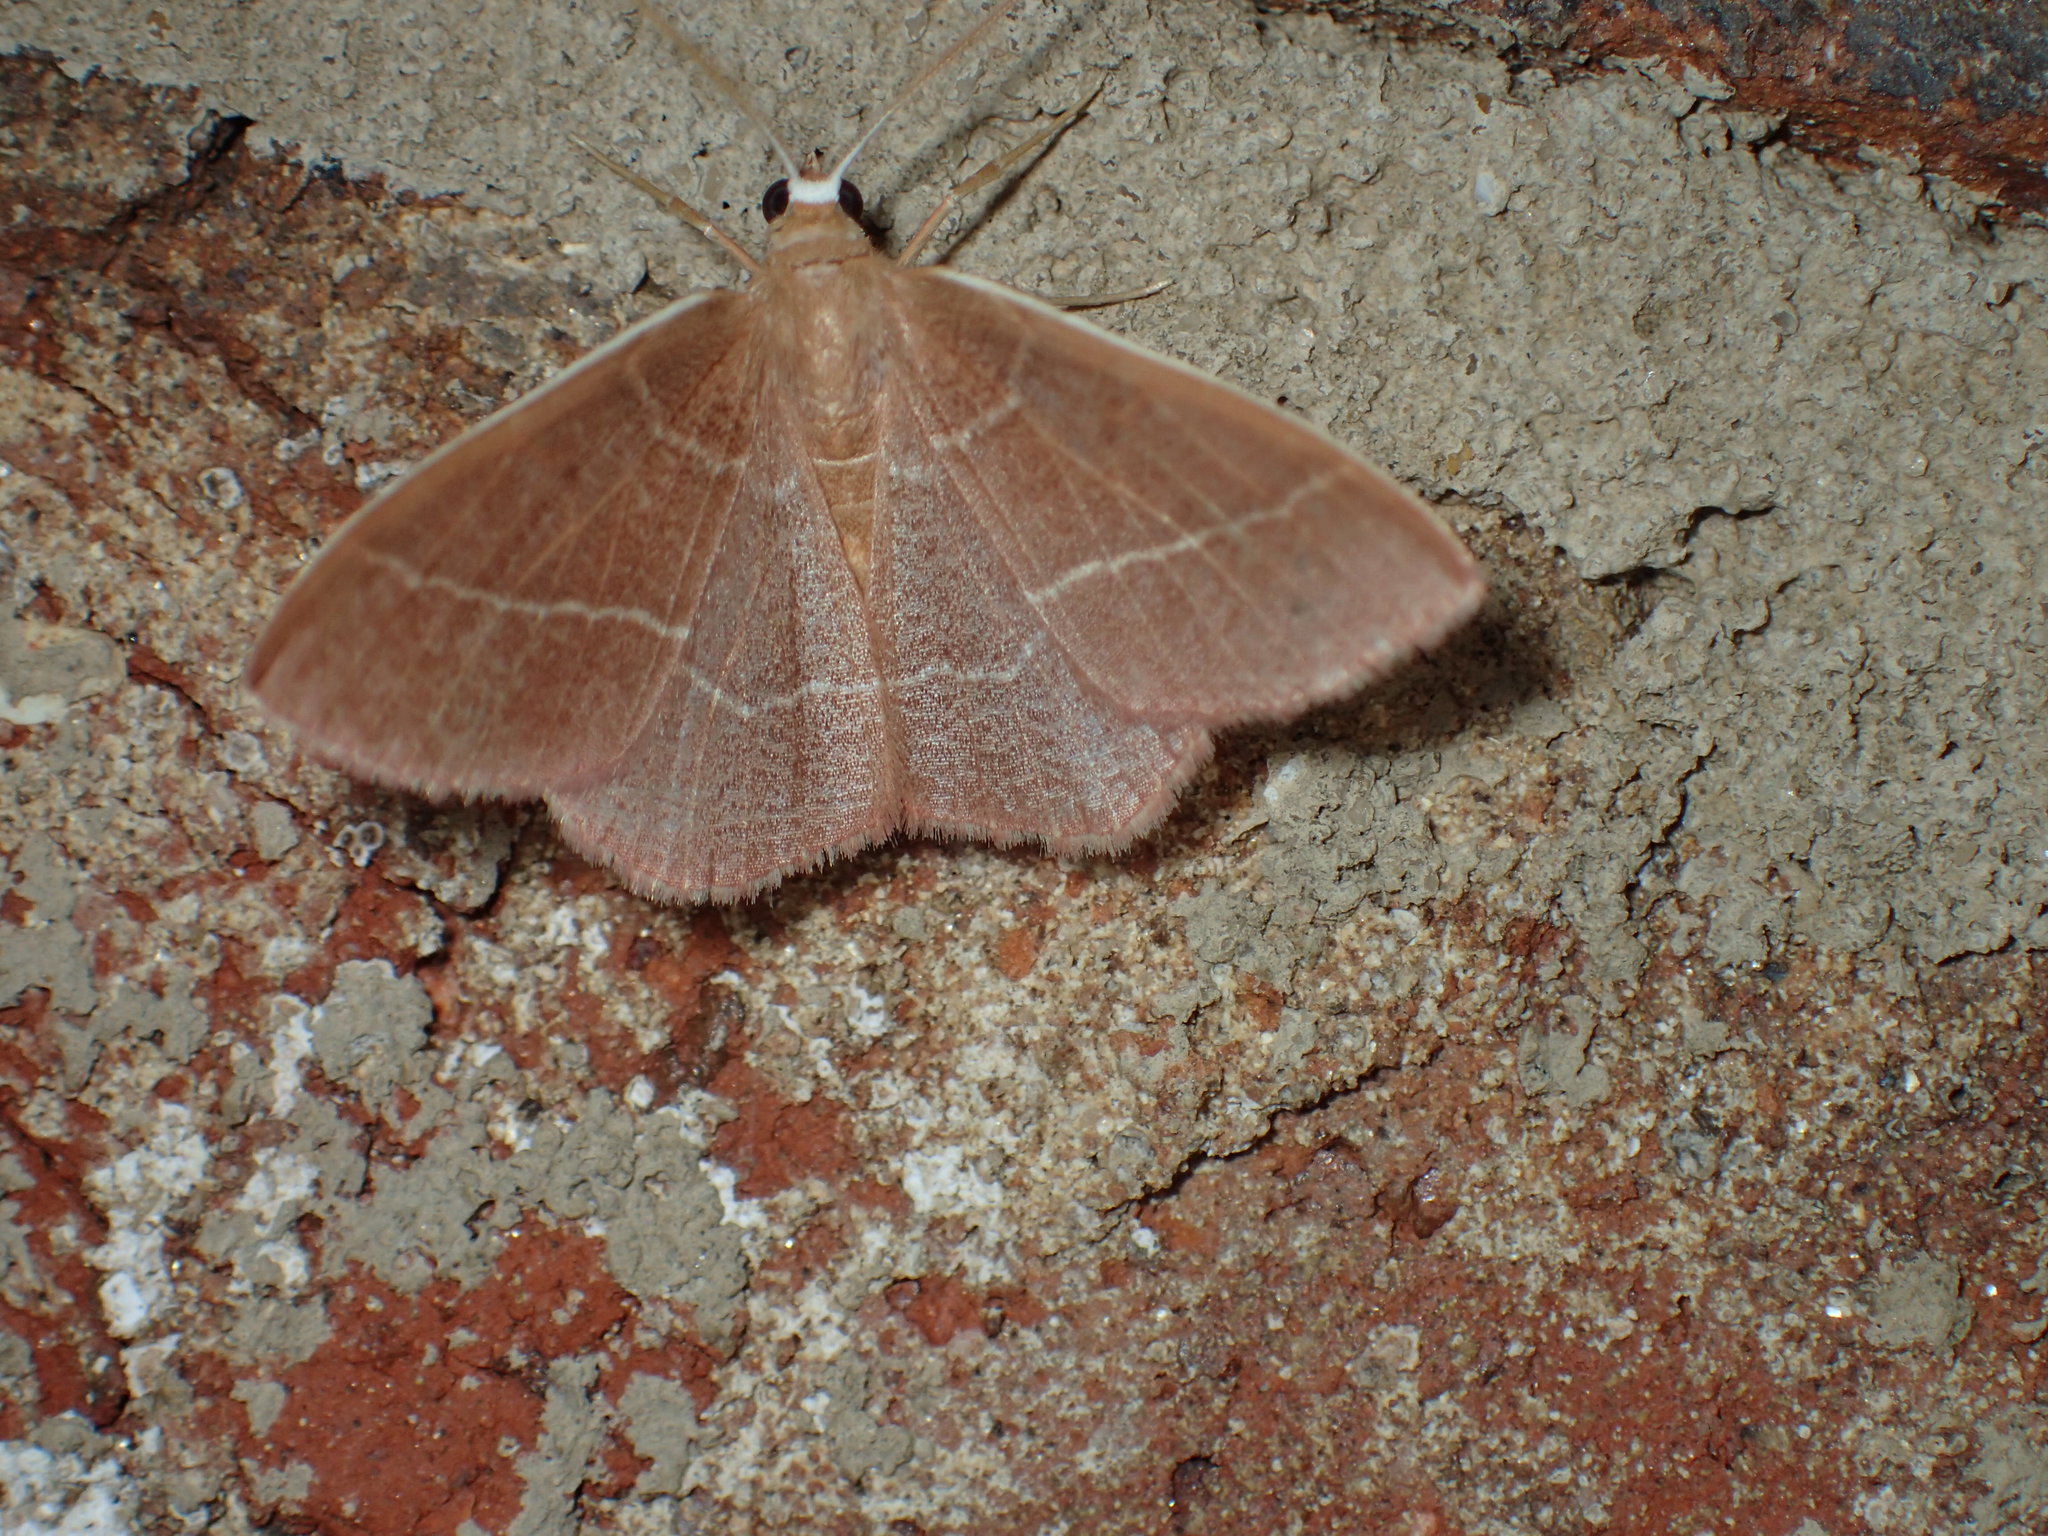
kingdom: Animalia
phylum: Arthropoda
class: Insecta
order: Lepidoptera
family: Geometridae
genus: Nemoria
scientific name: Nemoria bistriaria
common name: Red-fringed emerald
